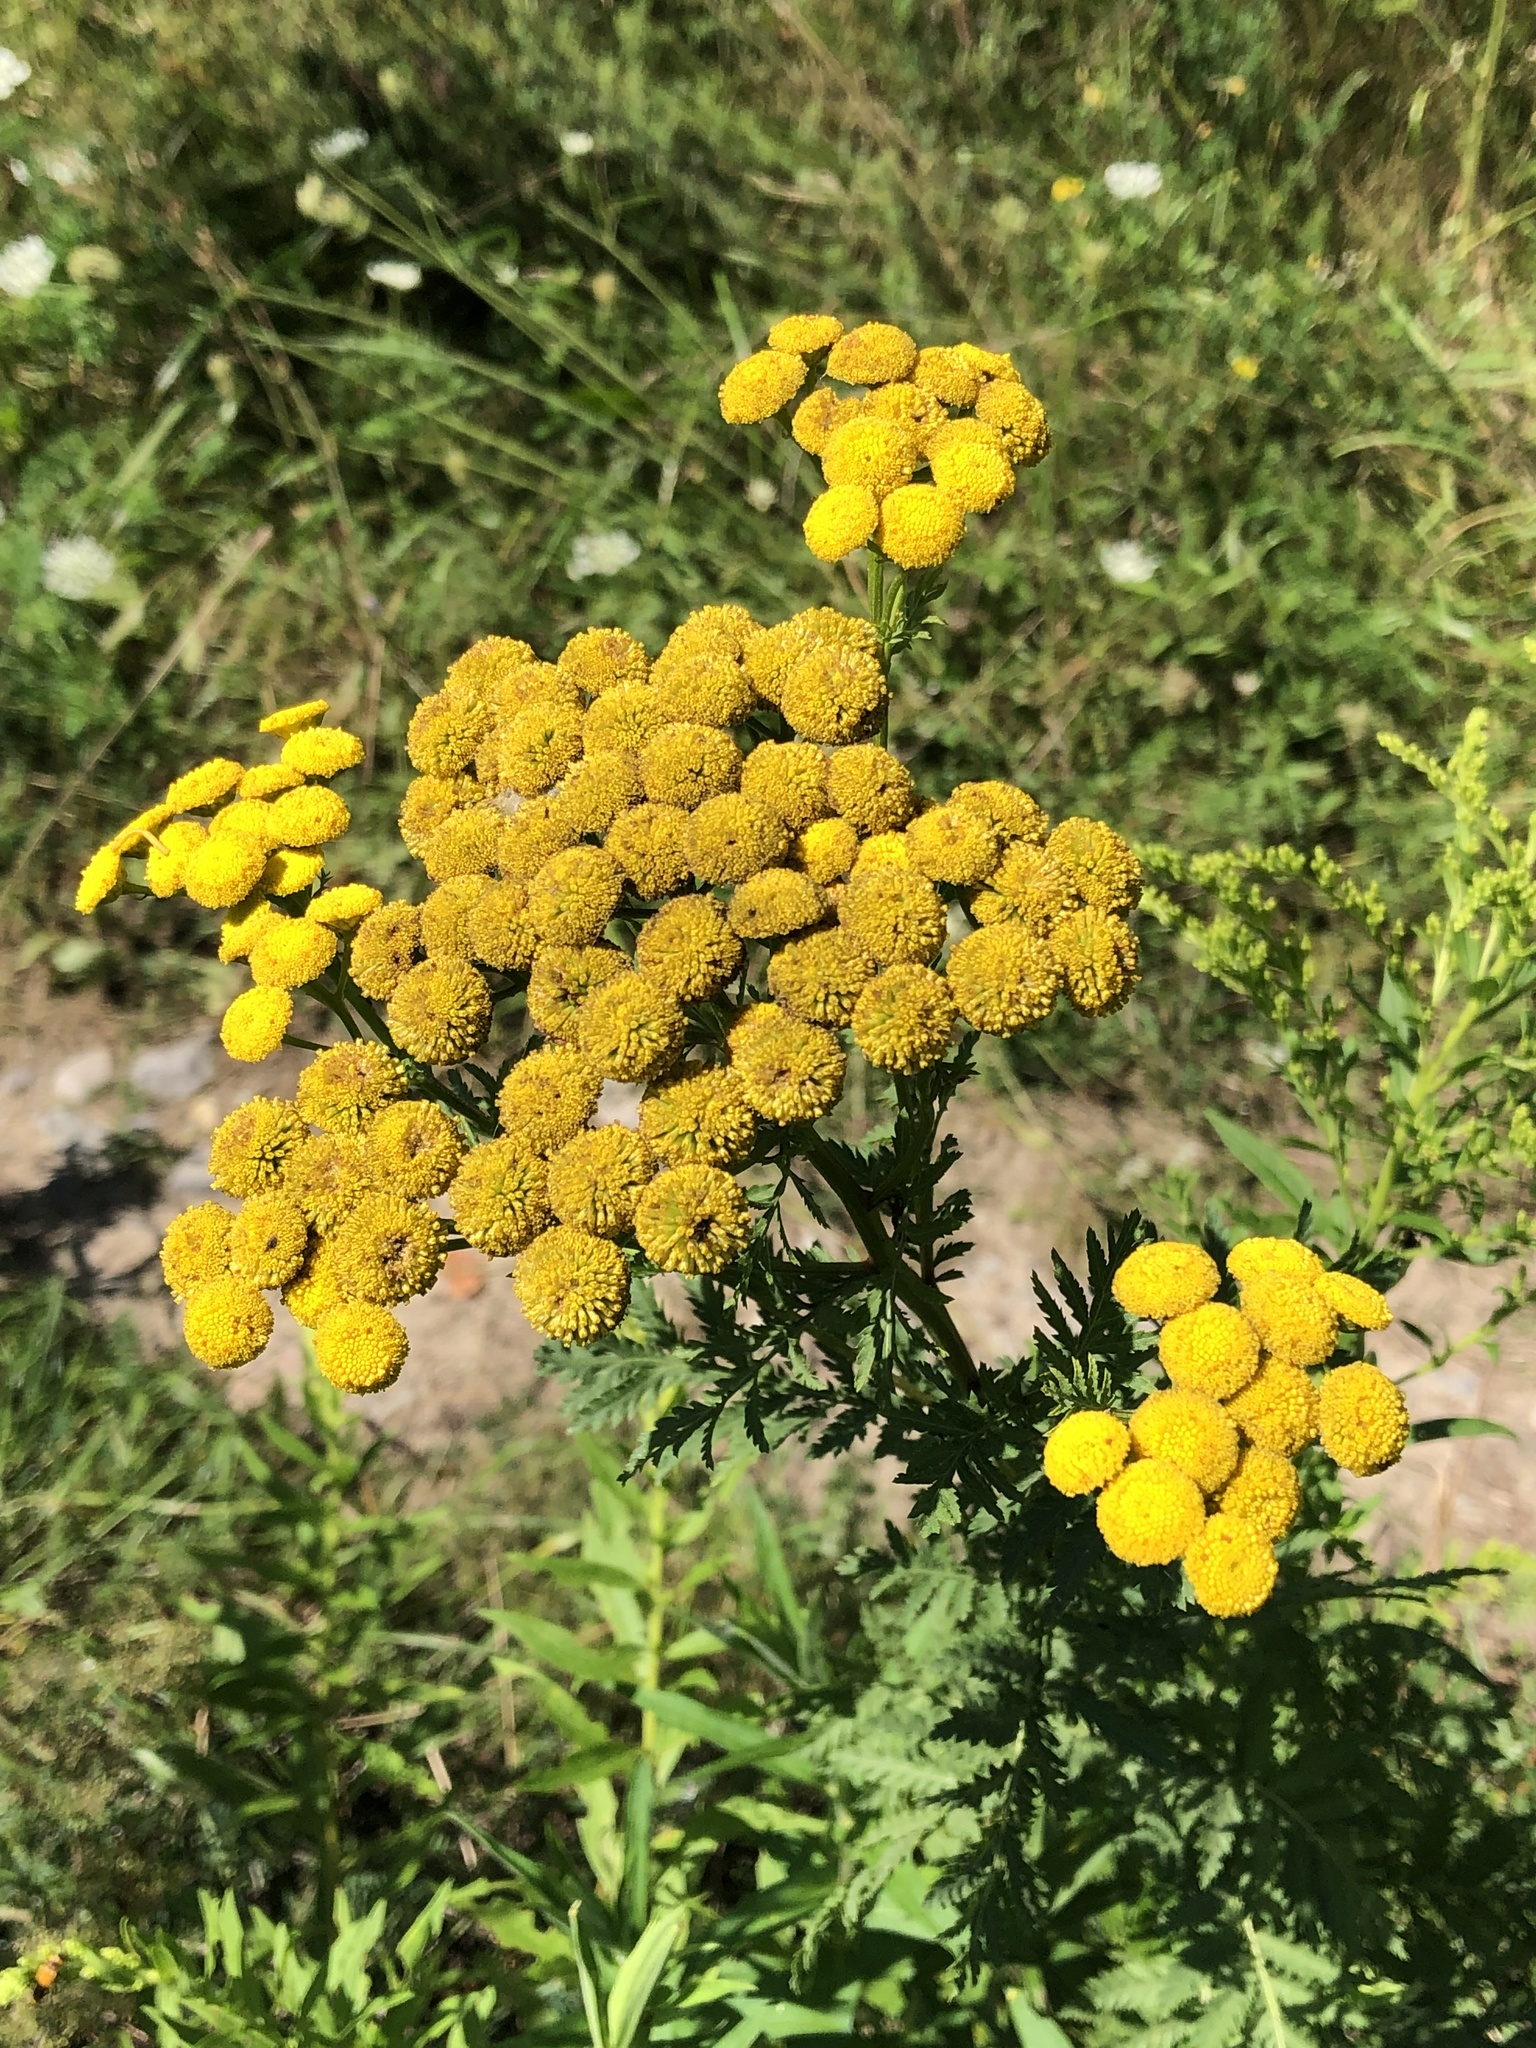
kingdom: Plantae
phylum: Tracheophyta
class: Magnoliopsida
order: Asterales
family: Asteraceae
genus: Tanacetum
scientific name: Tanacetum vulgare
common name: Common tansy
